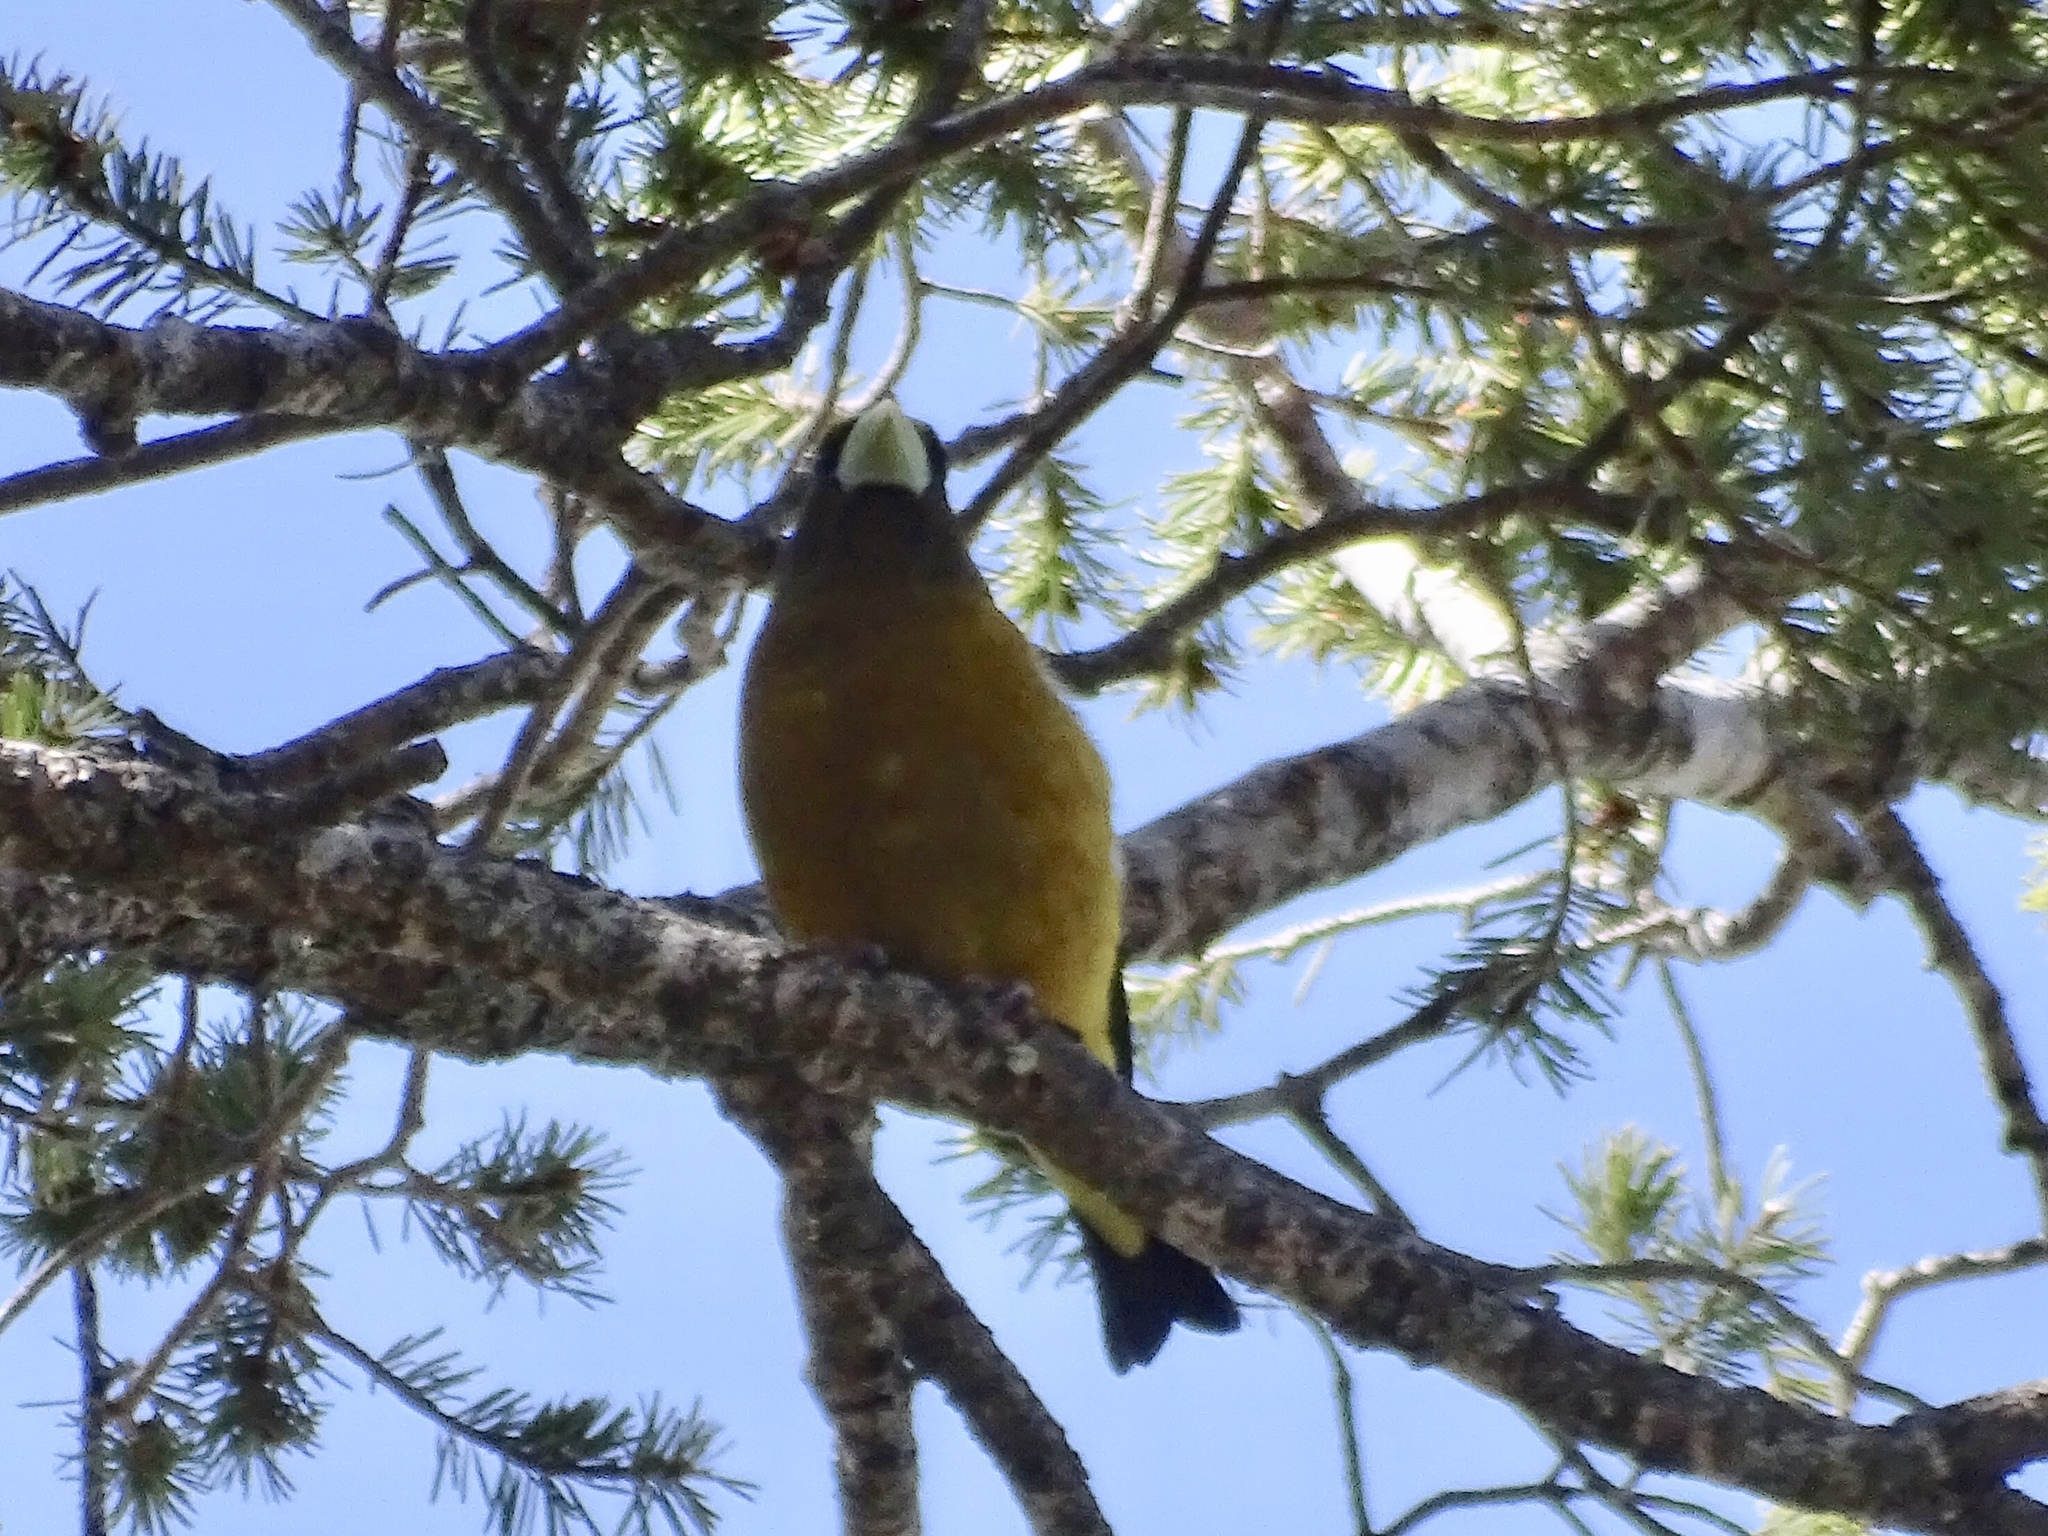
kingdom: Animalia
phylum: Chordata
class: Aves
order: Passeriformes
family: Fringillidae
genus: Hesperiphona
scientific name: Hesperiphona vespertina
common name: Evening grosbeak
